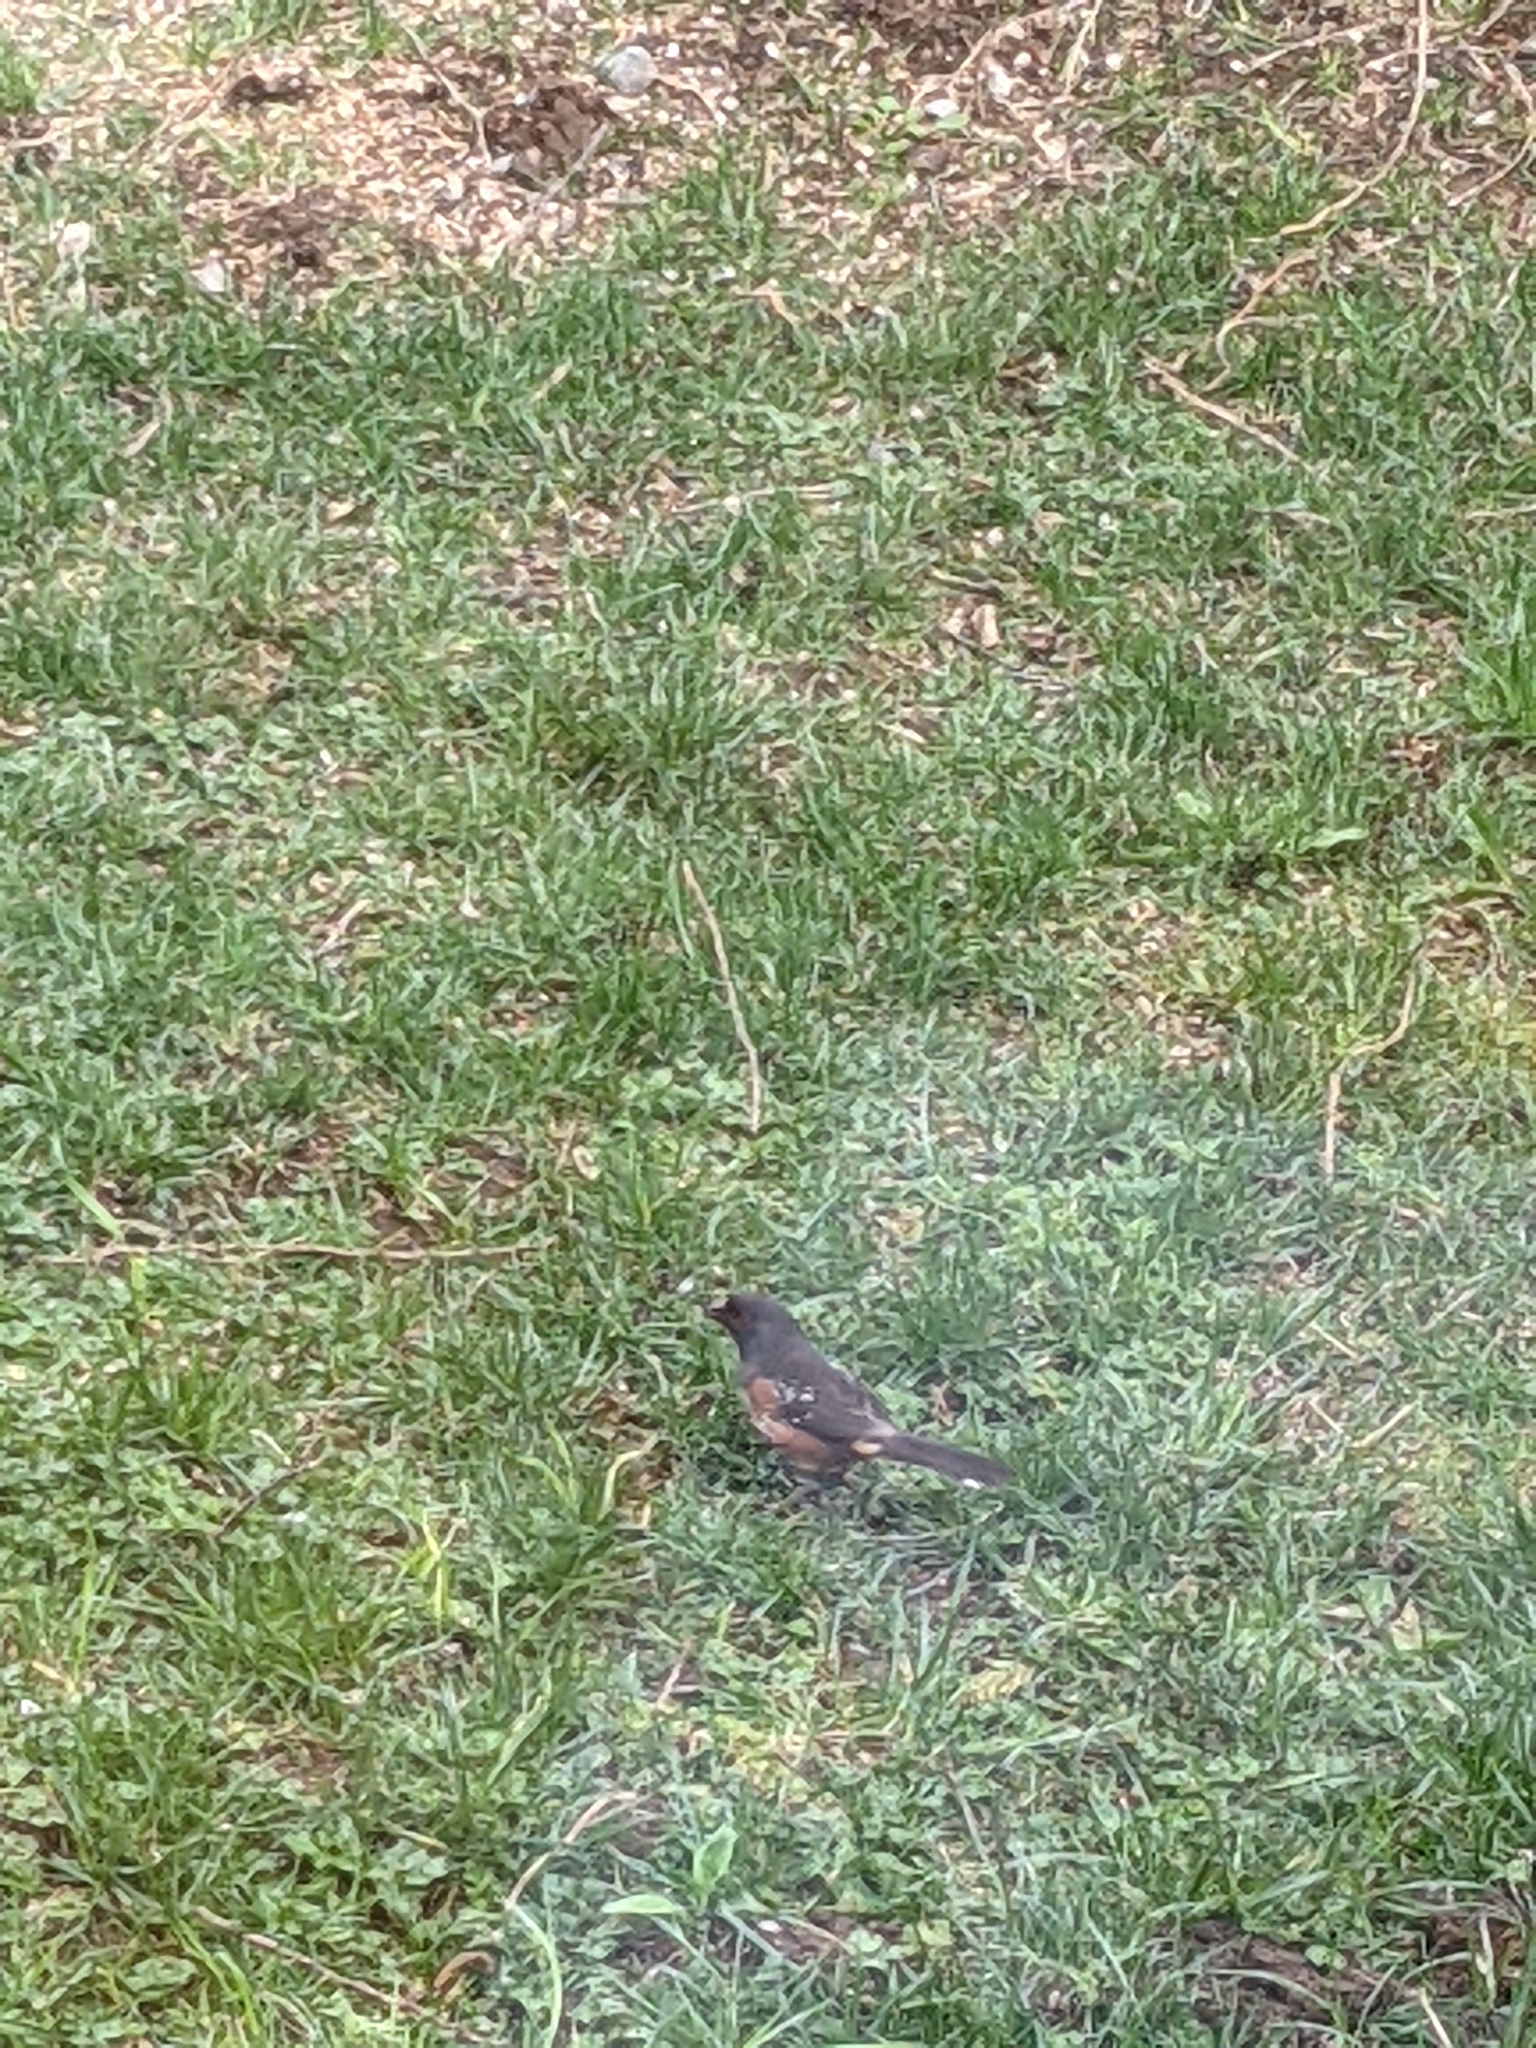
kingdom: Animalia
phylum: Chordata
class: Aves
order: Passeriformes
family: Passerellidae
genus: Pipilo
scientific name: Pipilo maculatus
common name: Spotted towhee
